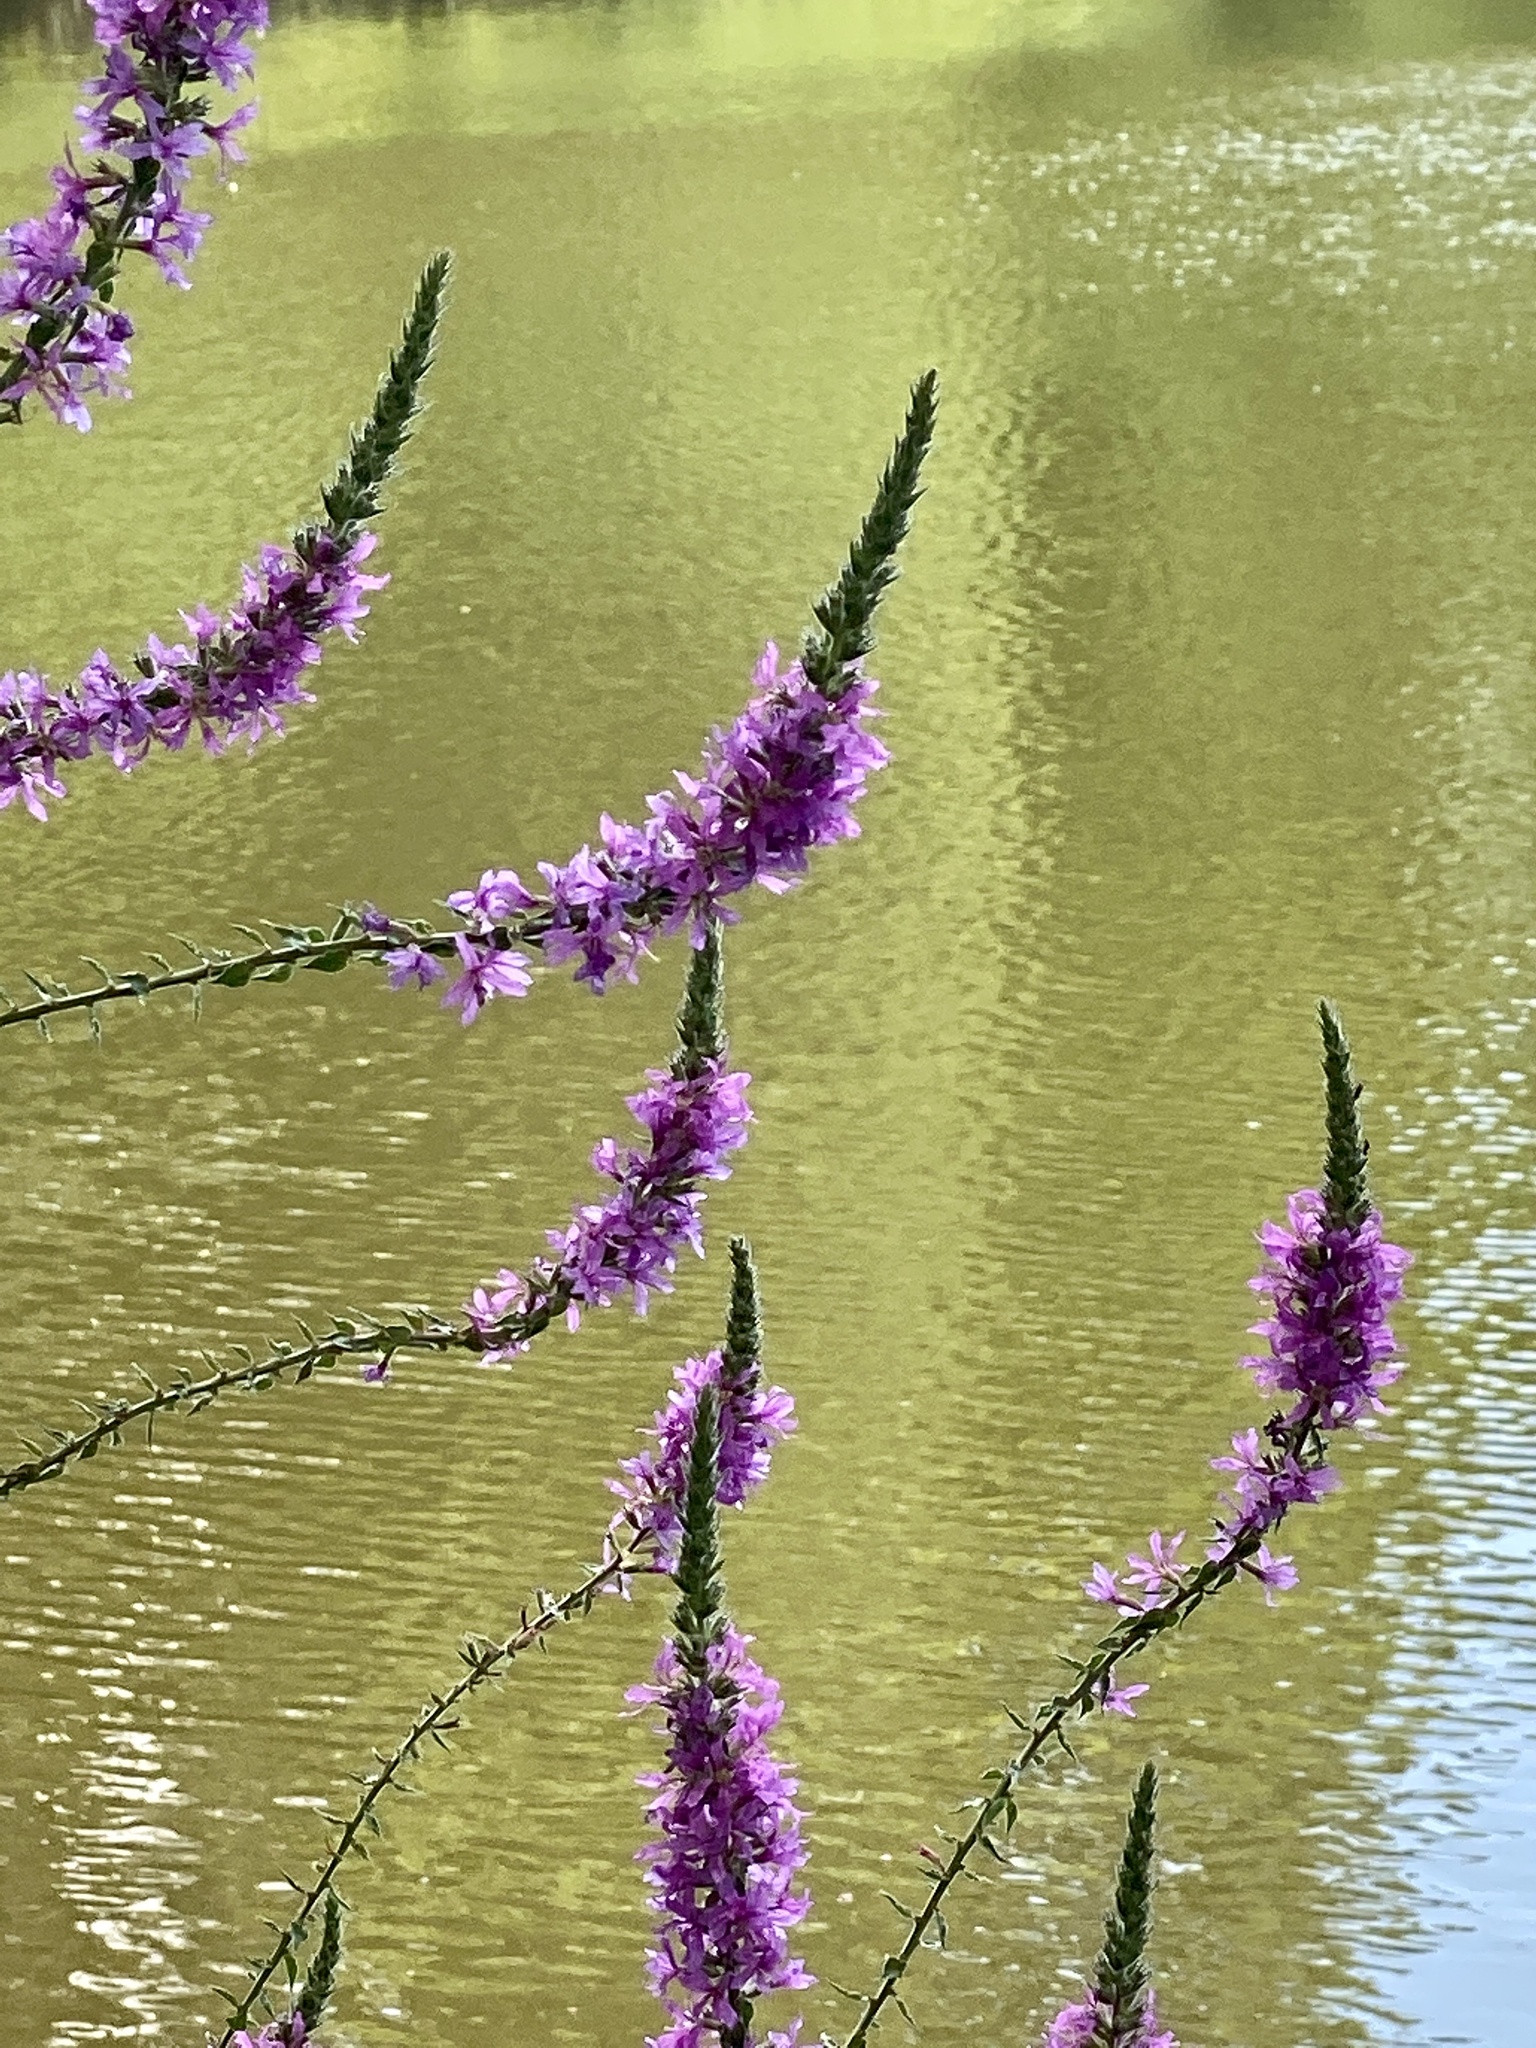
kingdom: Plantae
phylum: Tracheophyta
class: Magnoliopsida
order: Myrtales
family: Lythraceae
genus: Lythrum
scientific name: Lythrum salicaria
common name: Purple loosestrife
